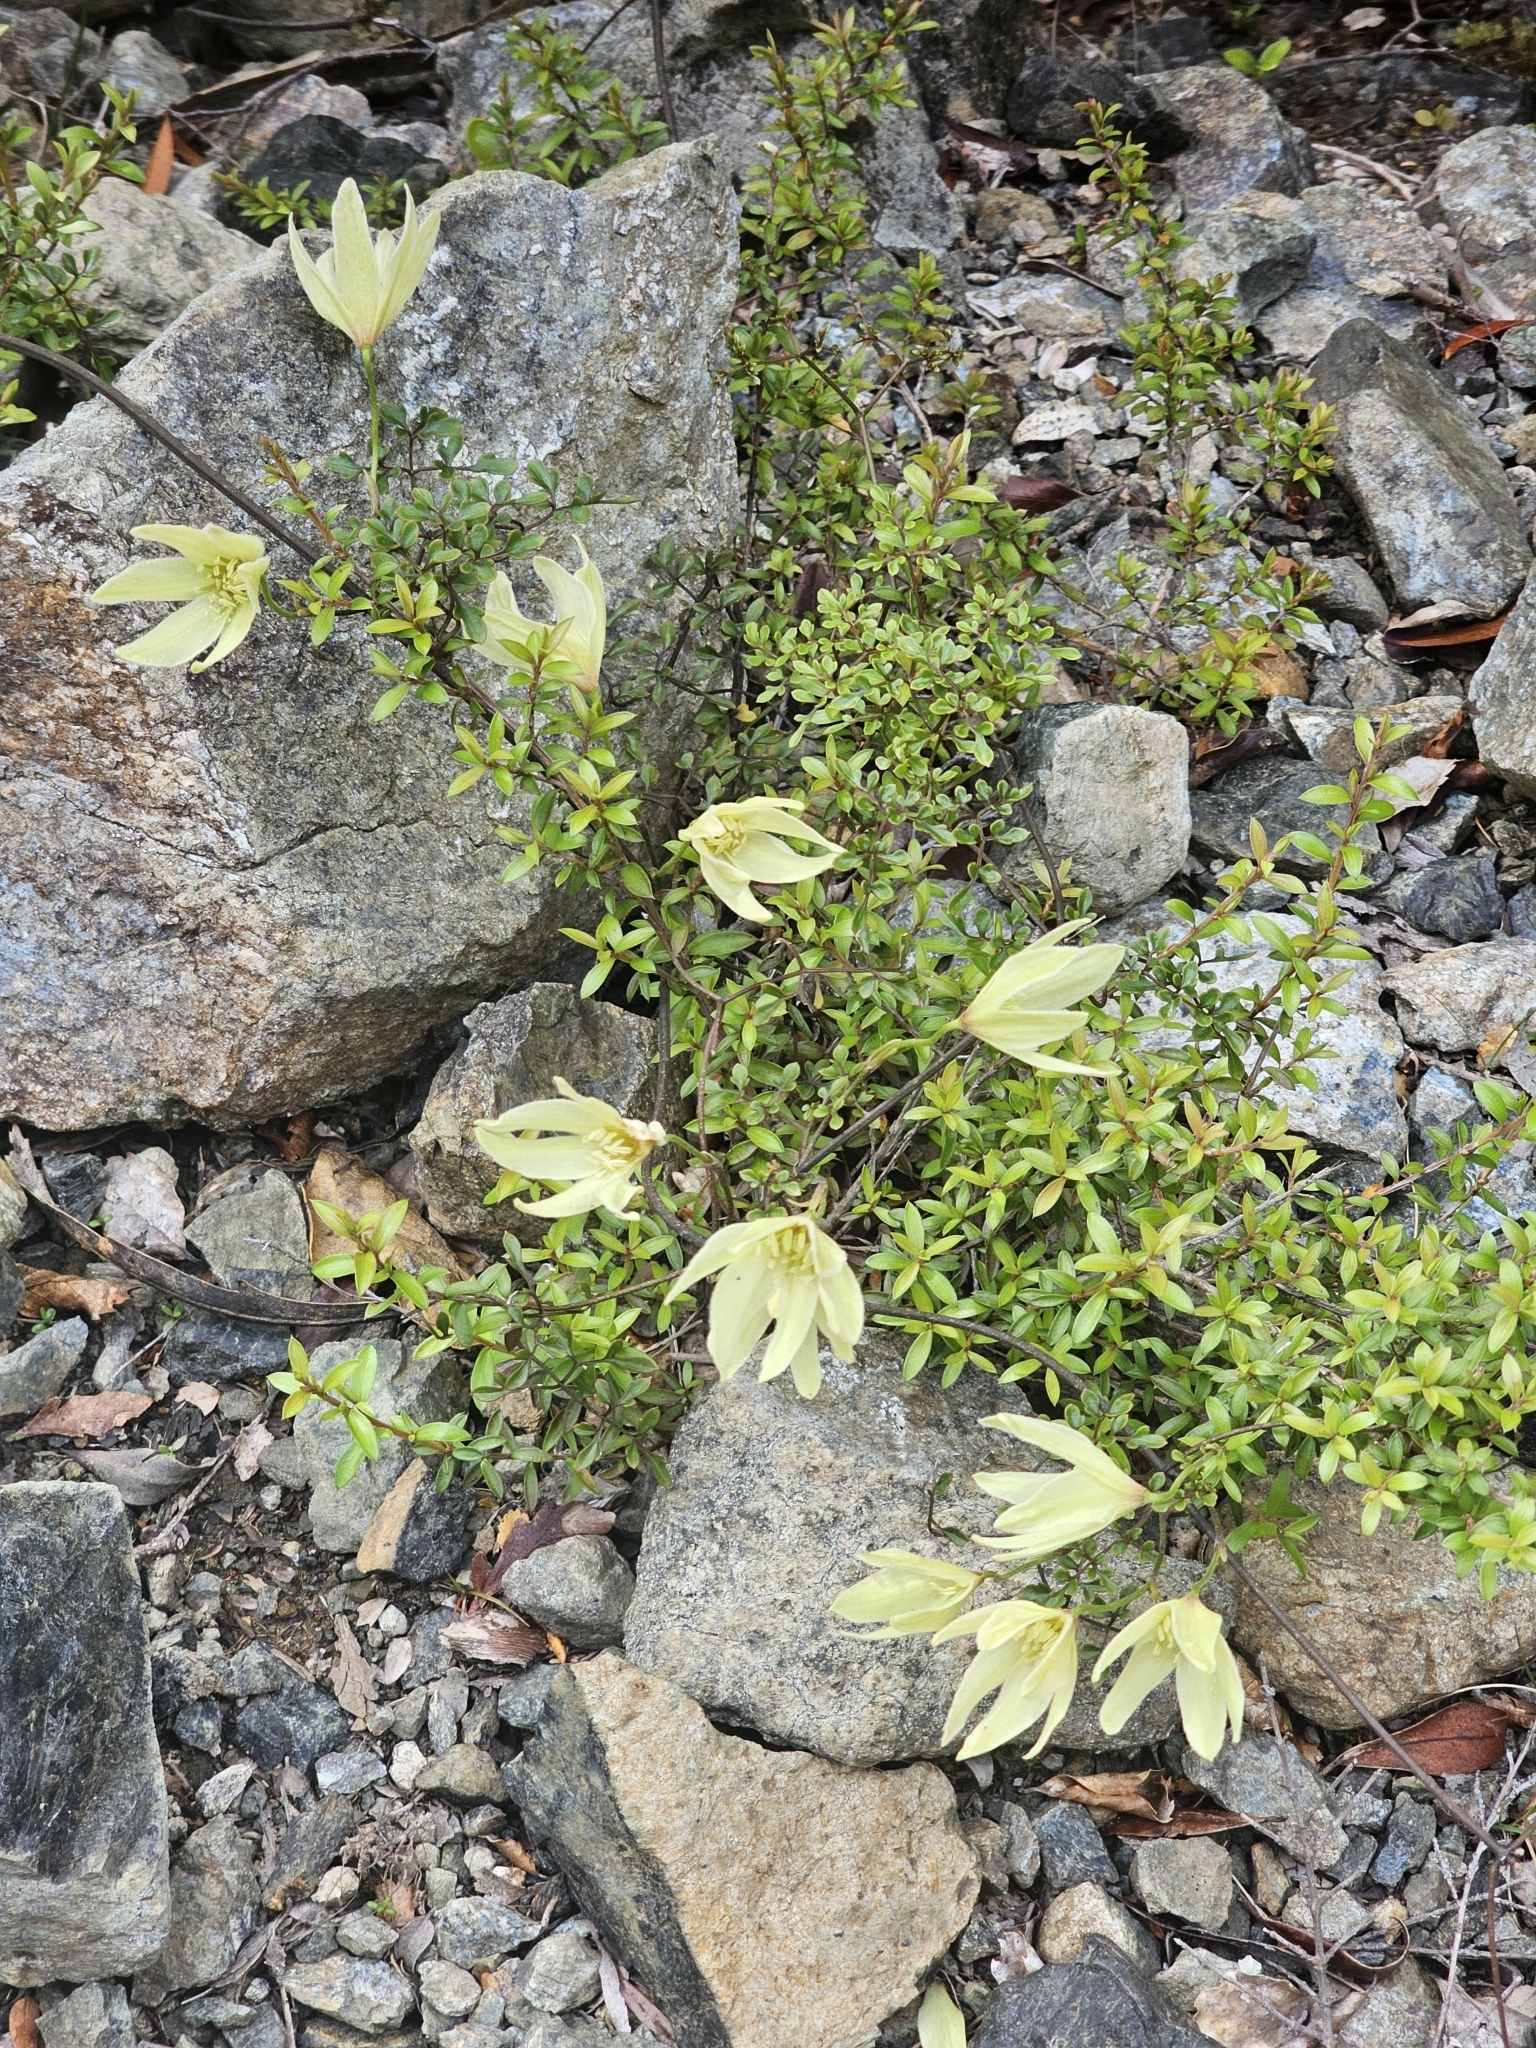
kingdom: Plantae
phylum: Tracheophyta
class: Magnoliopsida
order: Ranunculales
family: Ranunculaceae
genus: Clematis
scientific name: Clematis forsteri
